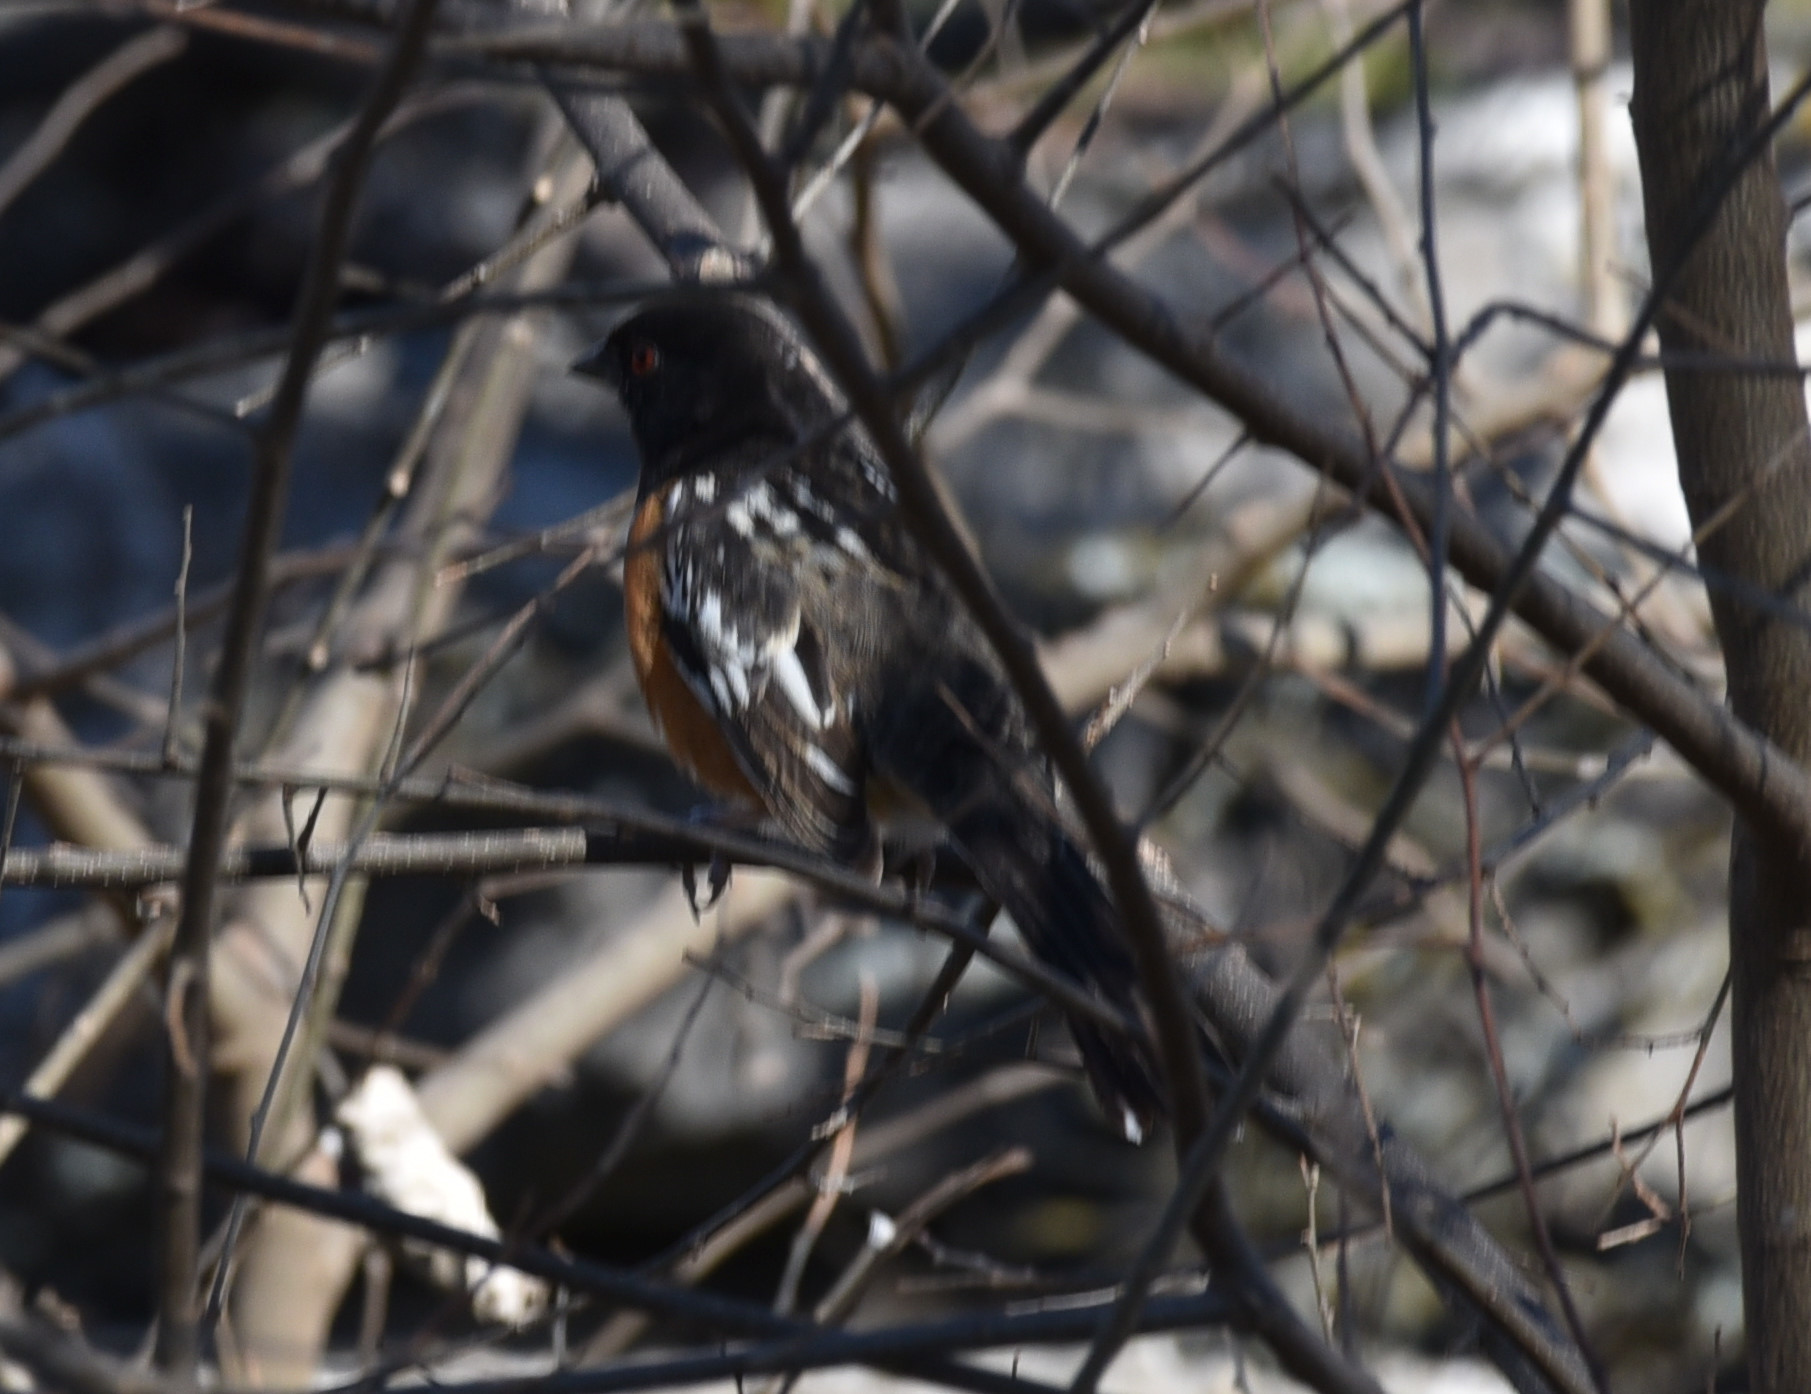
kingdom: Animalia
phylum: Chordata
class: Aves
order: Passeriformes
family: Passerellidae
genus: Pipilo
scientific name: Pipilo maculatus
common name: Spotted towhee
